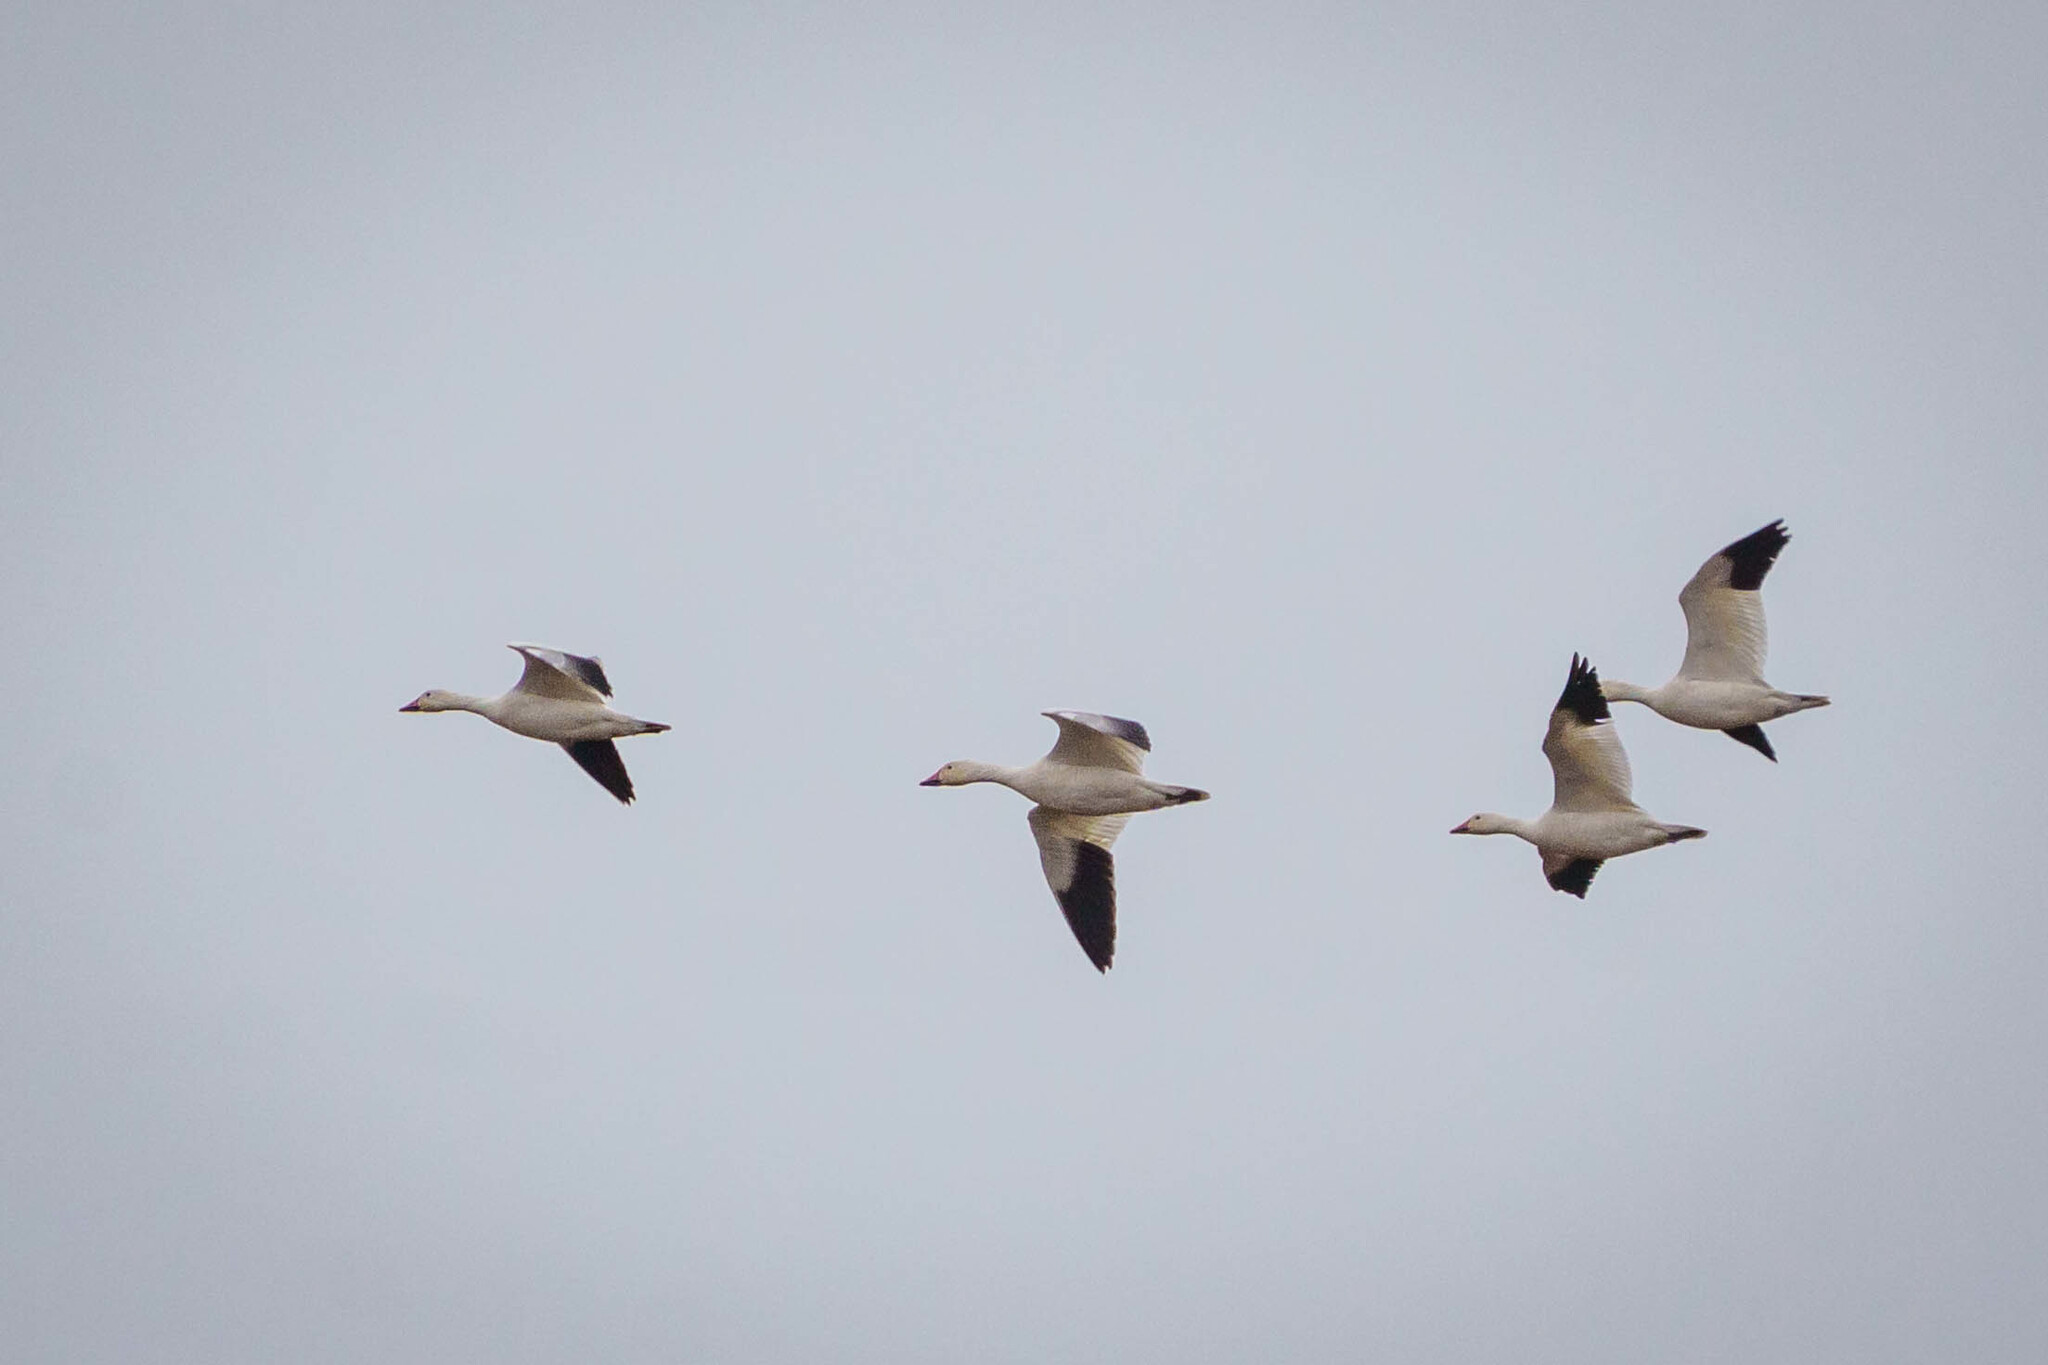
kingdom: Animalia
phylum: Chordata
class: Aves
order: Anseriformes
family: Anatidae
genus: Anser
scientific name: Anser caerulescens
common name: Snow goose
